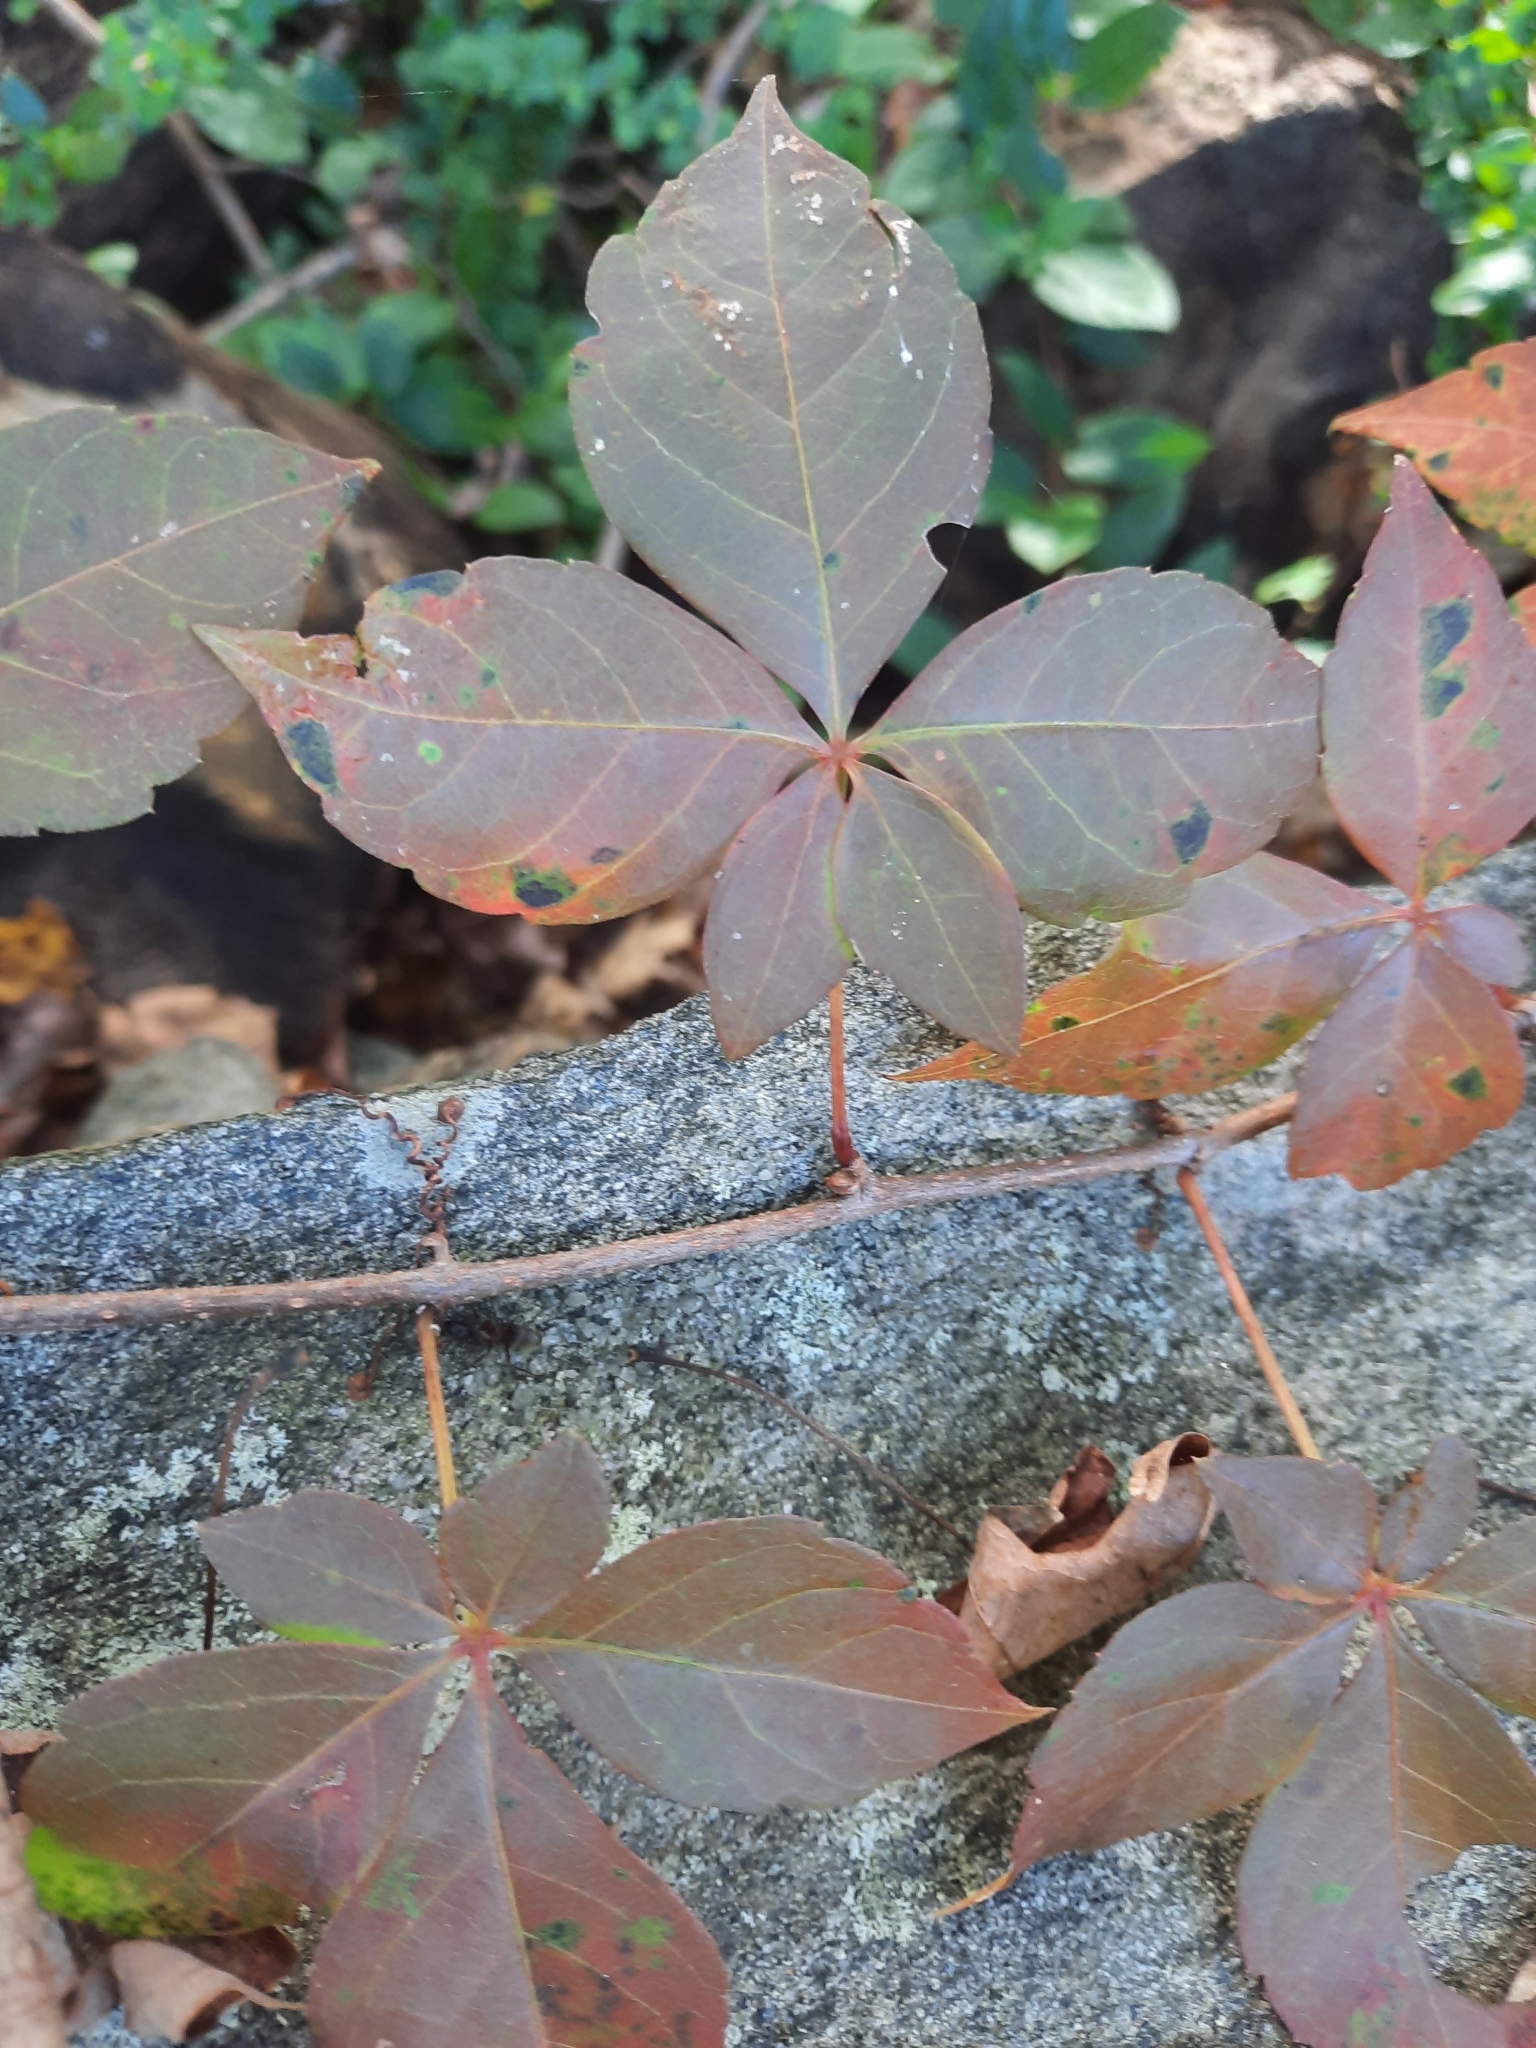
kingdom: Plantae
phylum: Tracheophyta
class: Magnoliopsida
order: Vitales
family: Vitaceae
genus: Parthenocissus
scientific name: Parthenocissus quinquefolia
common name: Virginia-creeper
